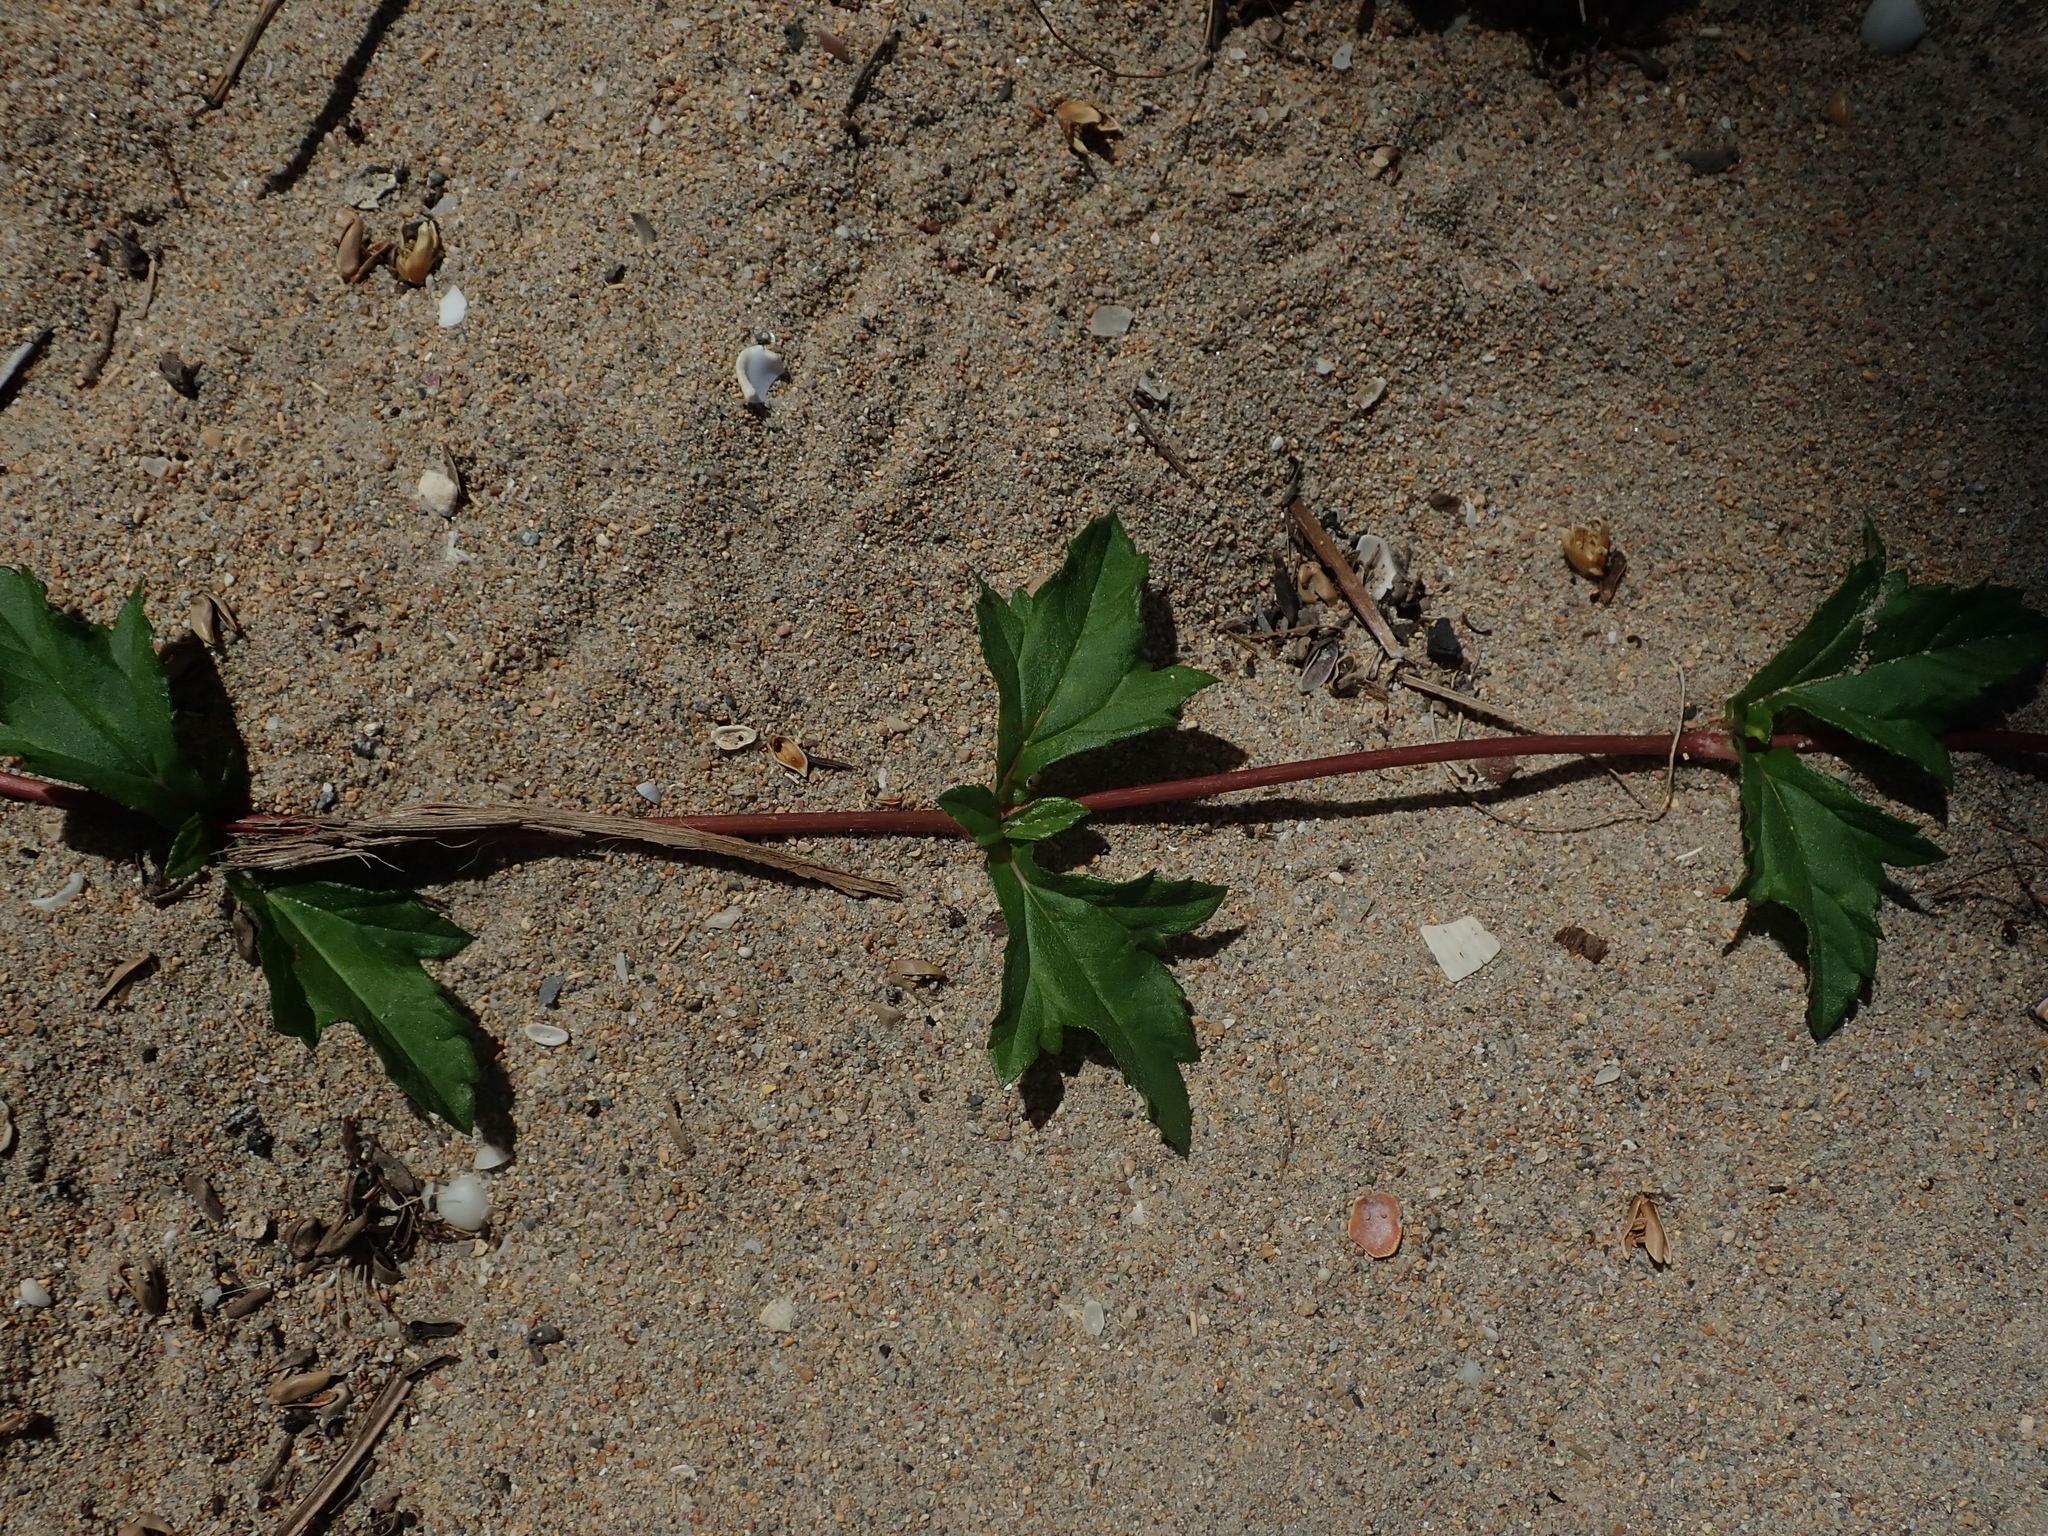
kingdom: Plantae
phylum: Tracheophyta
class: Magnoliopsida
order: Asterales
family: Asteraceae
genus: Sphagneticola
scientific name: Sphagneticola trilobata
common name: Bay biscayne creeping-oxeye
